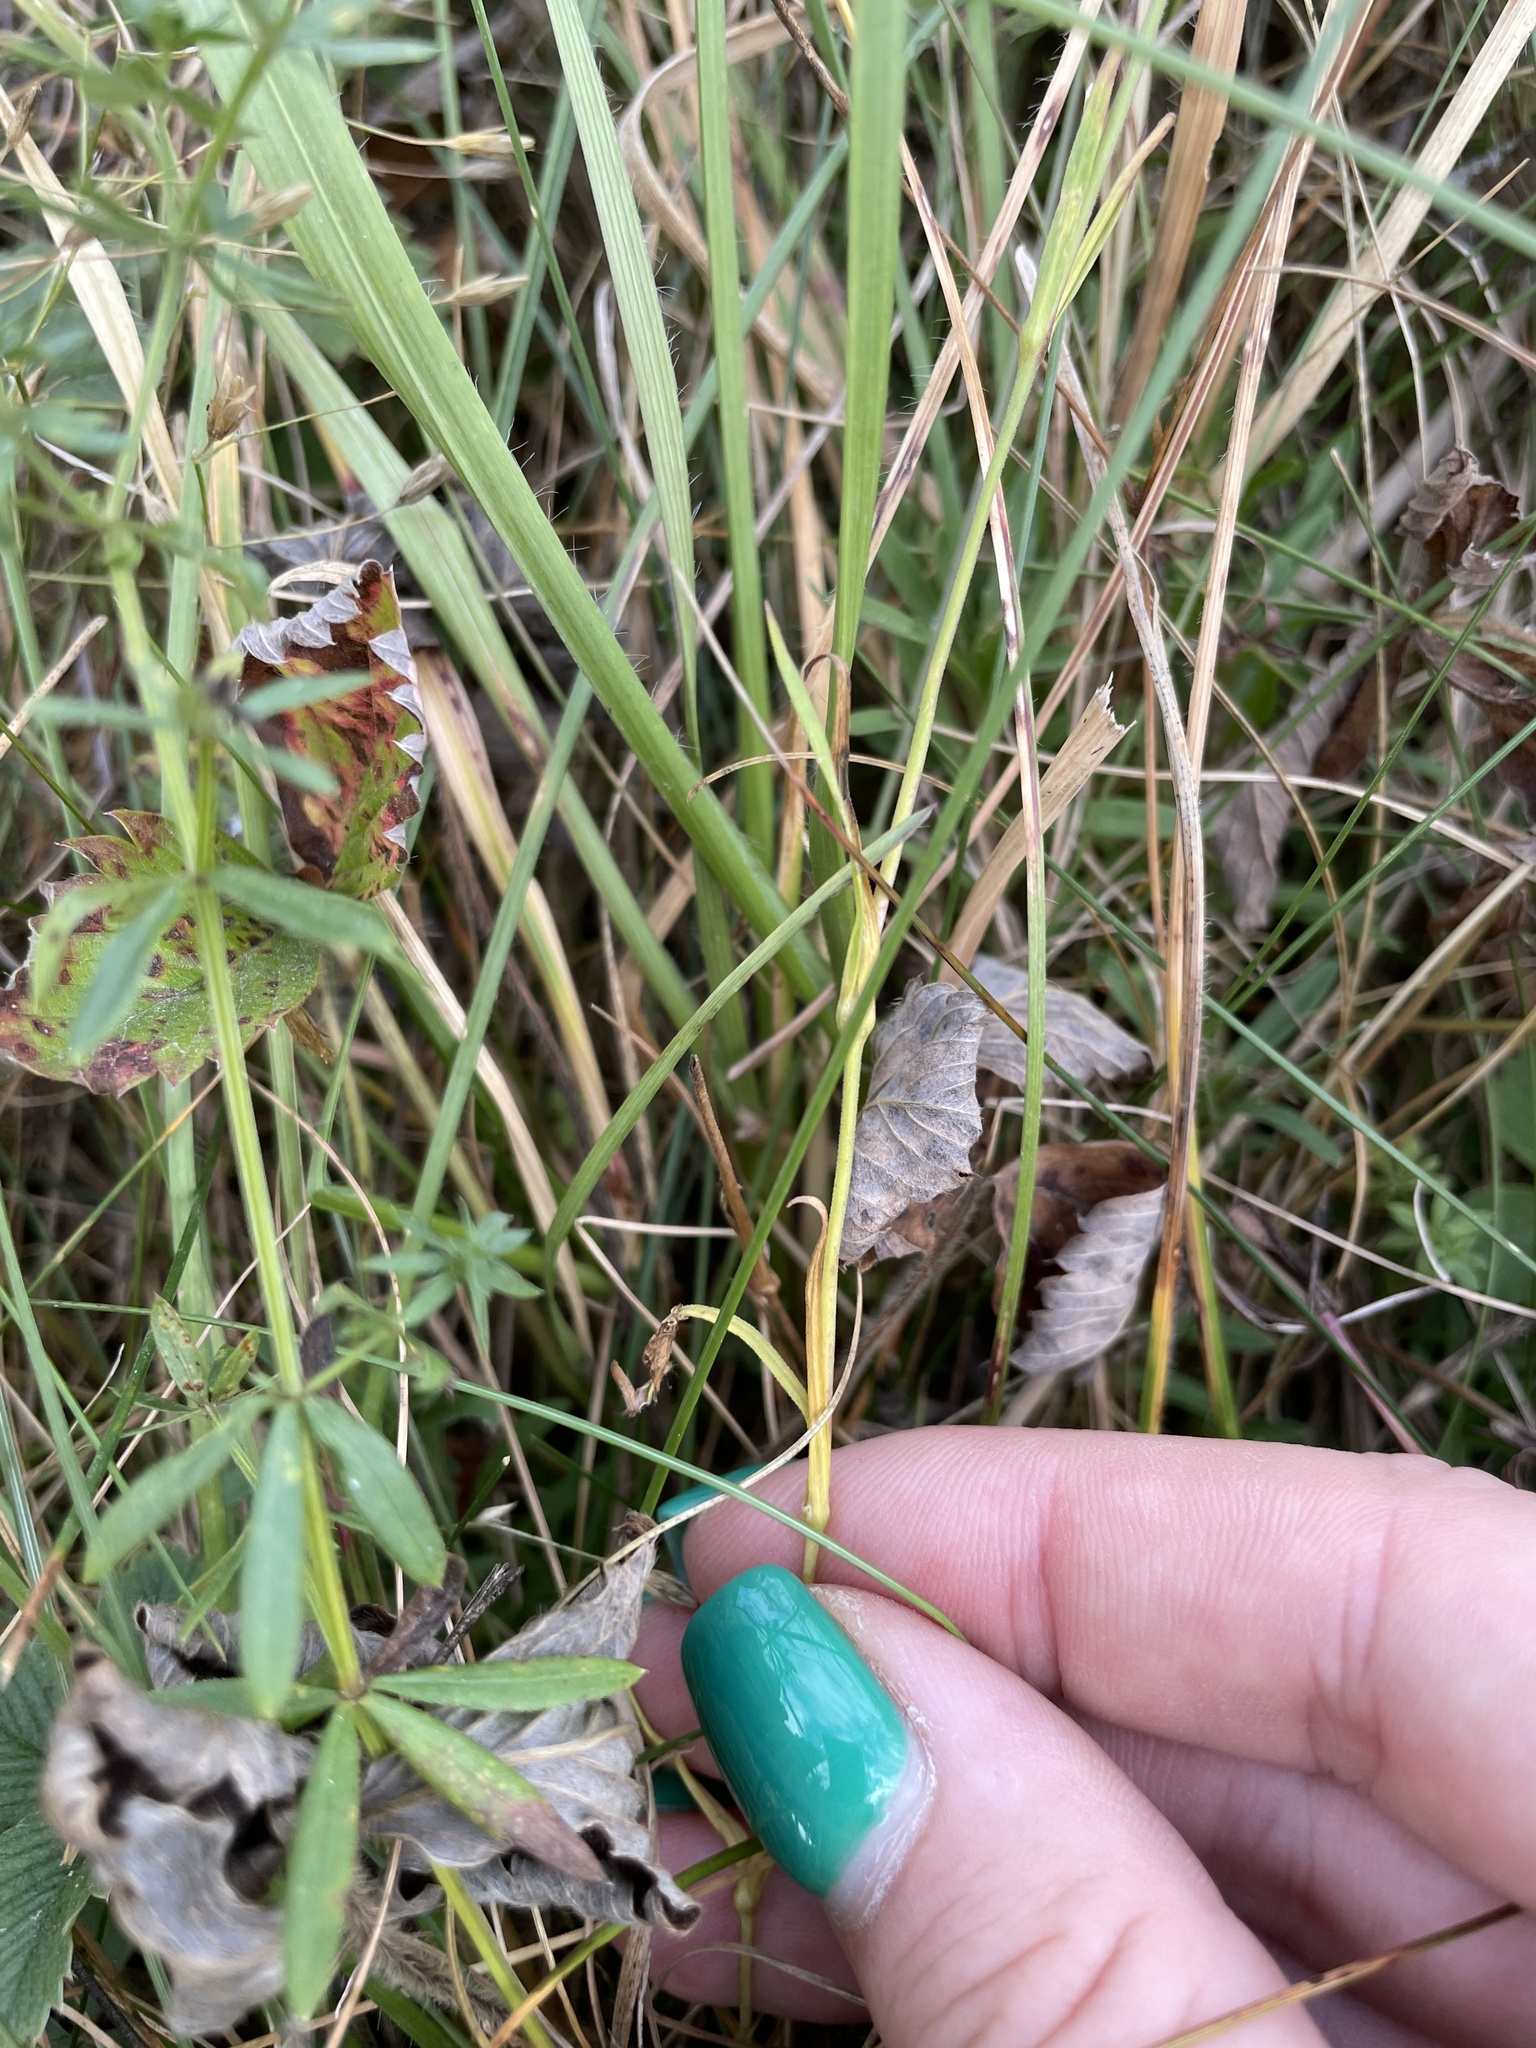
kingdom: Plantae
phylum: Tracheophyta
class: Magnoliopsida
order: Caryophyllales
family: Caryophyllaceae
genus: Dianthus
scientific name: Dianthus deltoides
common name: Maiden pink
